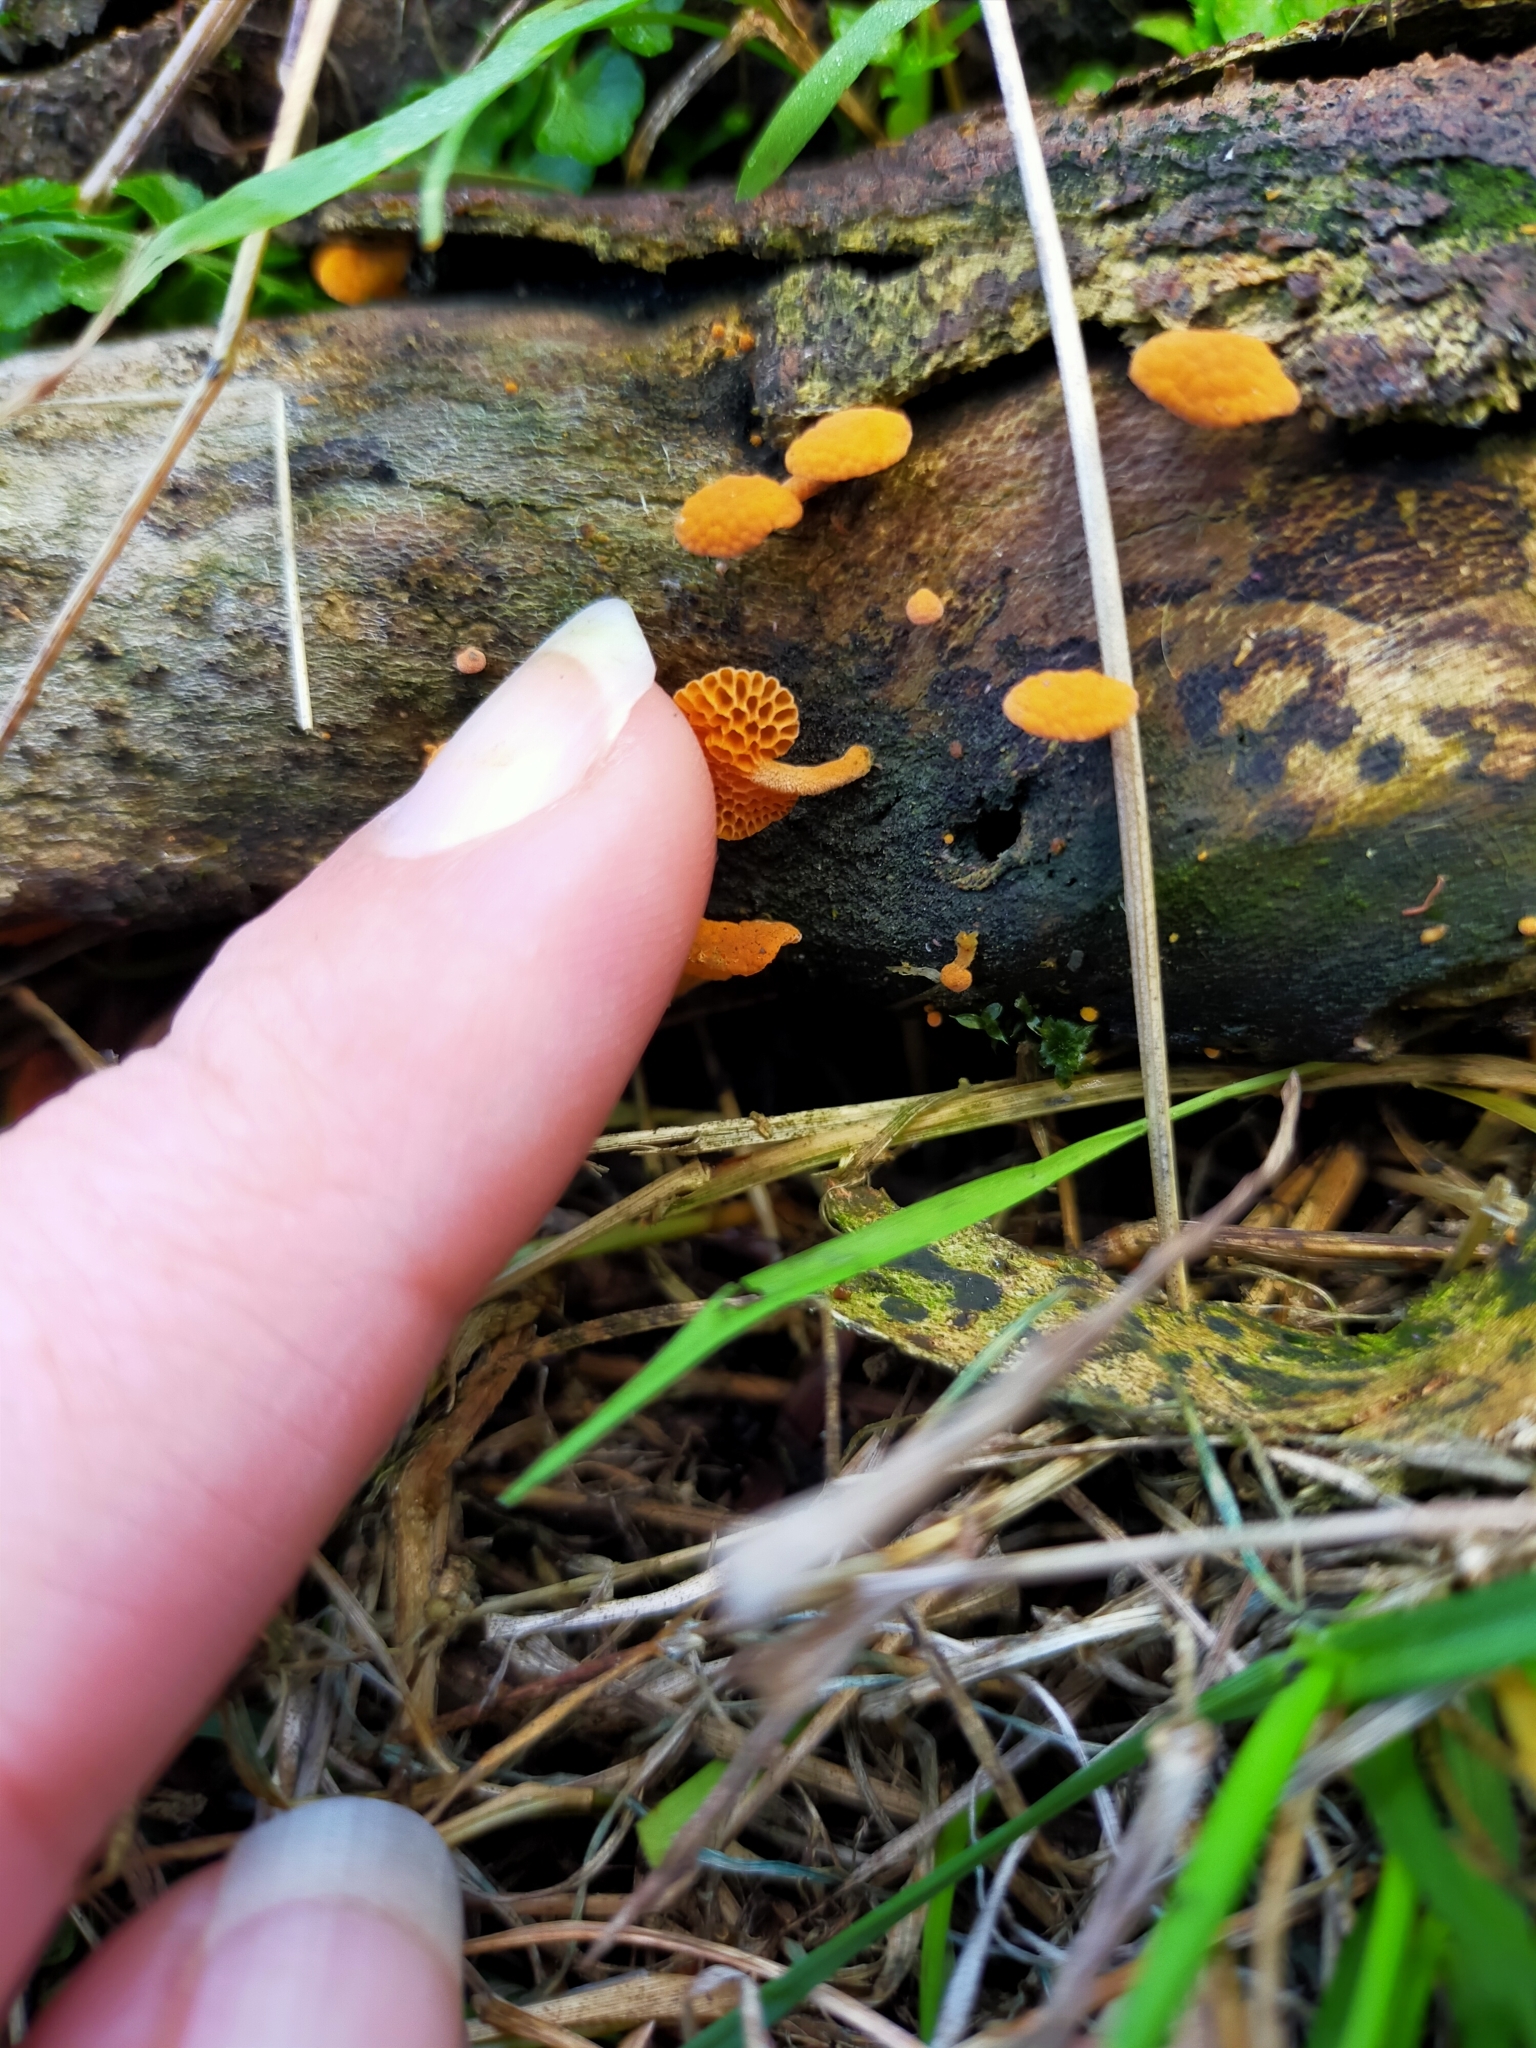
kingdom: Fungi
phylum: Basidiomycota
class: Agaricomycetes
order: Agaricales
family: Mycenaceae
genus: Favolaschia
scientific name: Favolaschia claudopus
